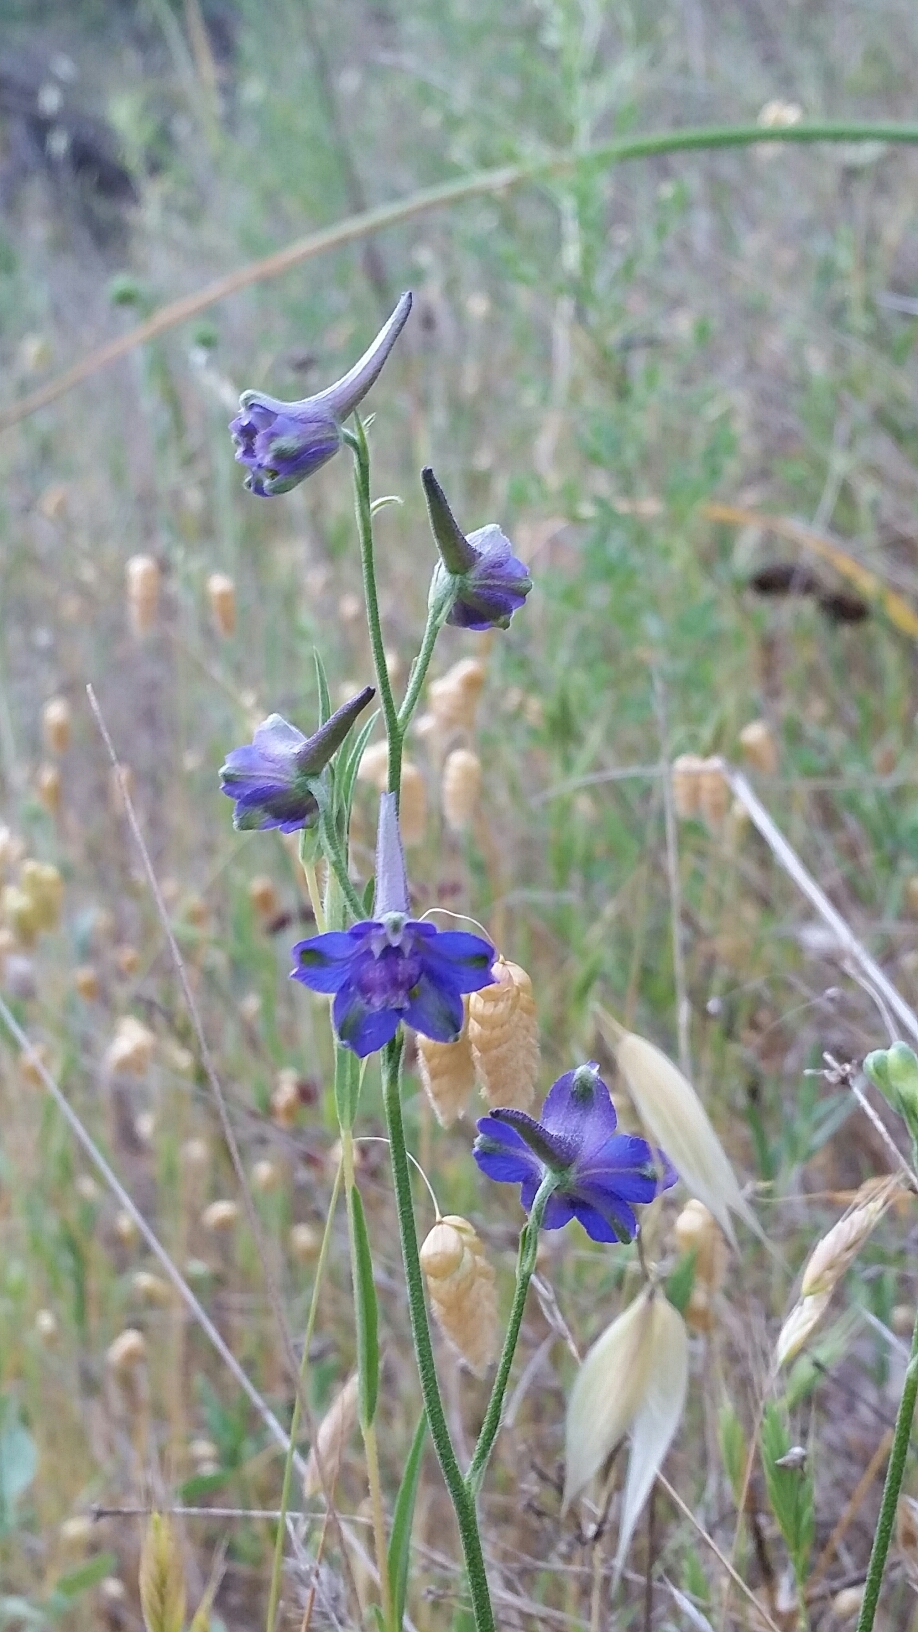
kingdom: Plantae
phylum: Tracheophyta
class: Magnoliopsida
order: Ranunculales
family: Ranunculaceae
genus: Delphinium
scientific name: Delphinium variegatum
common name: Royal larkspur
